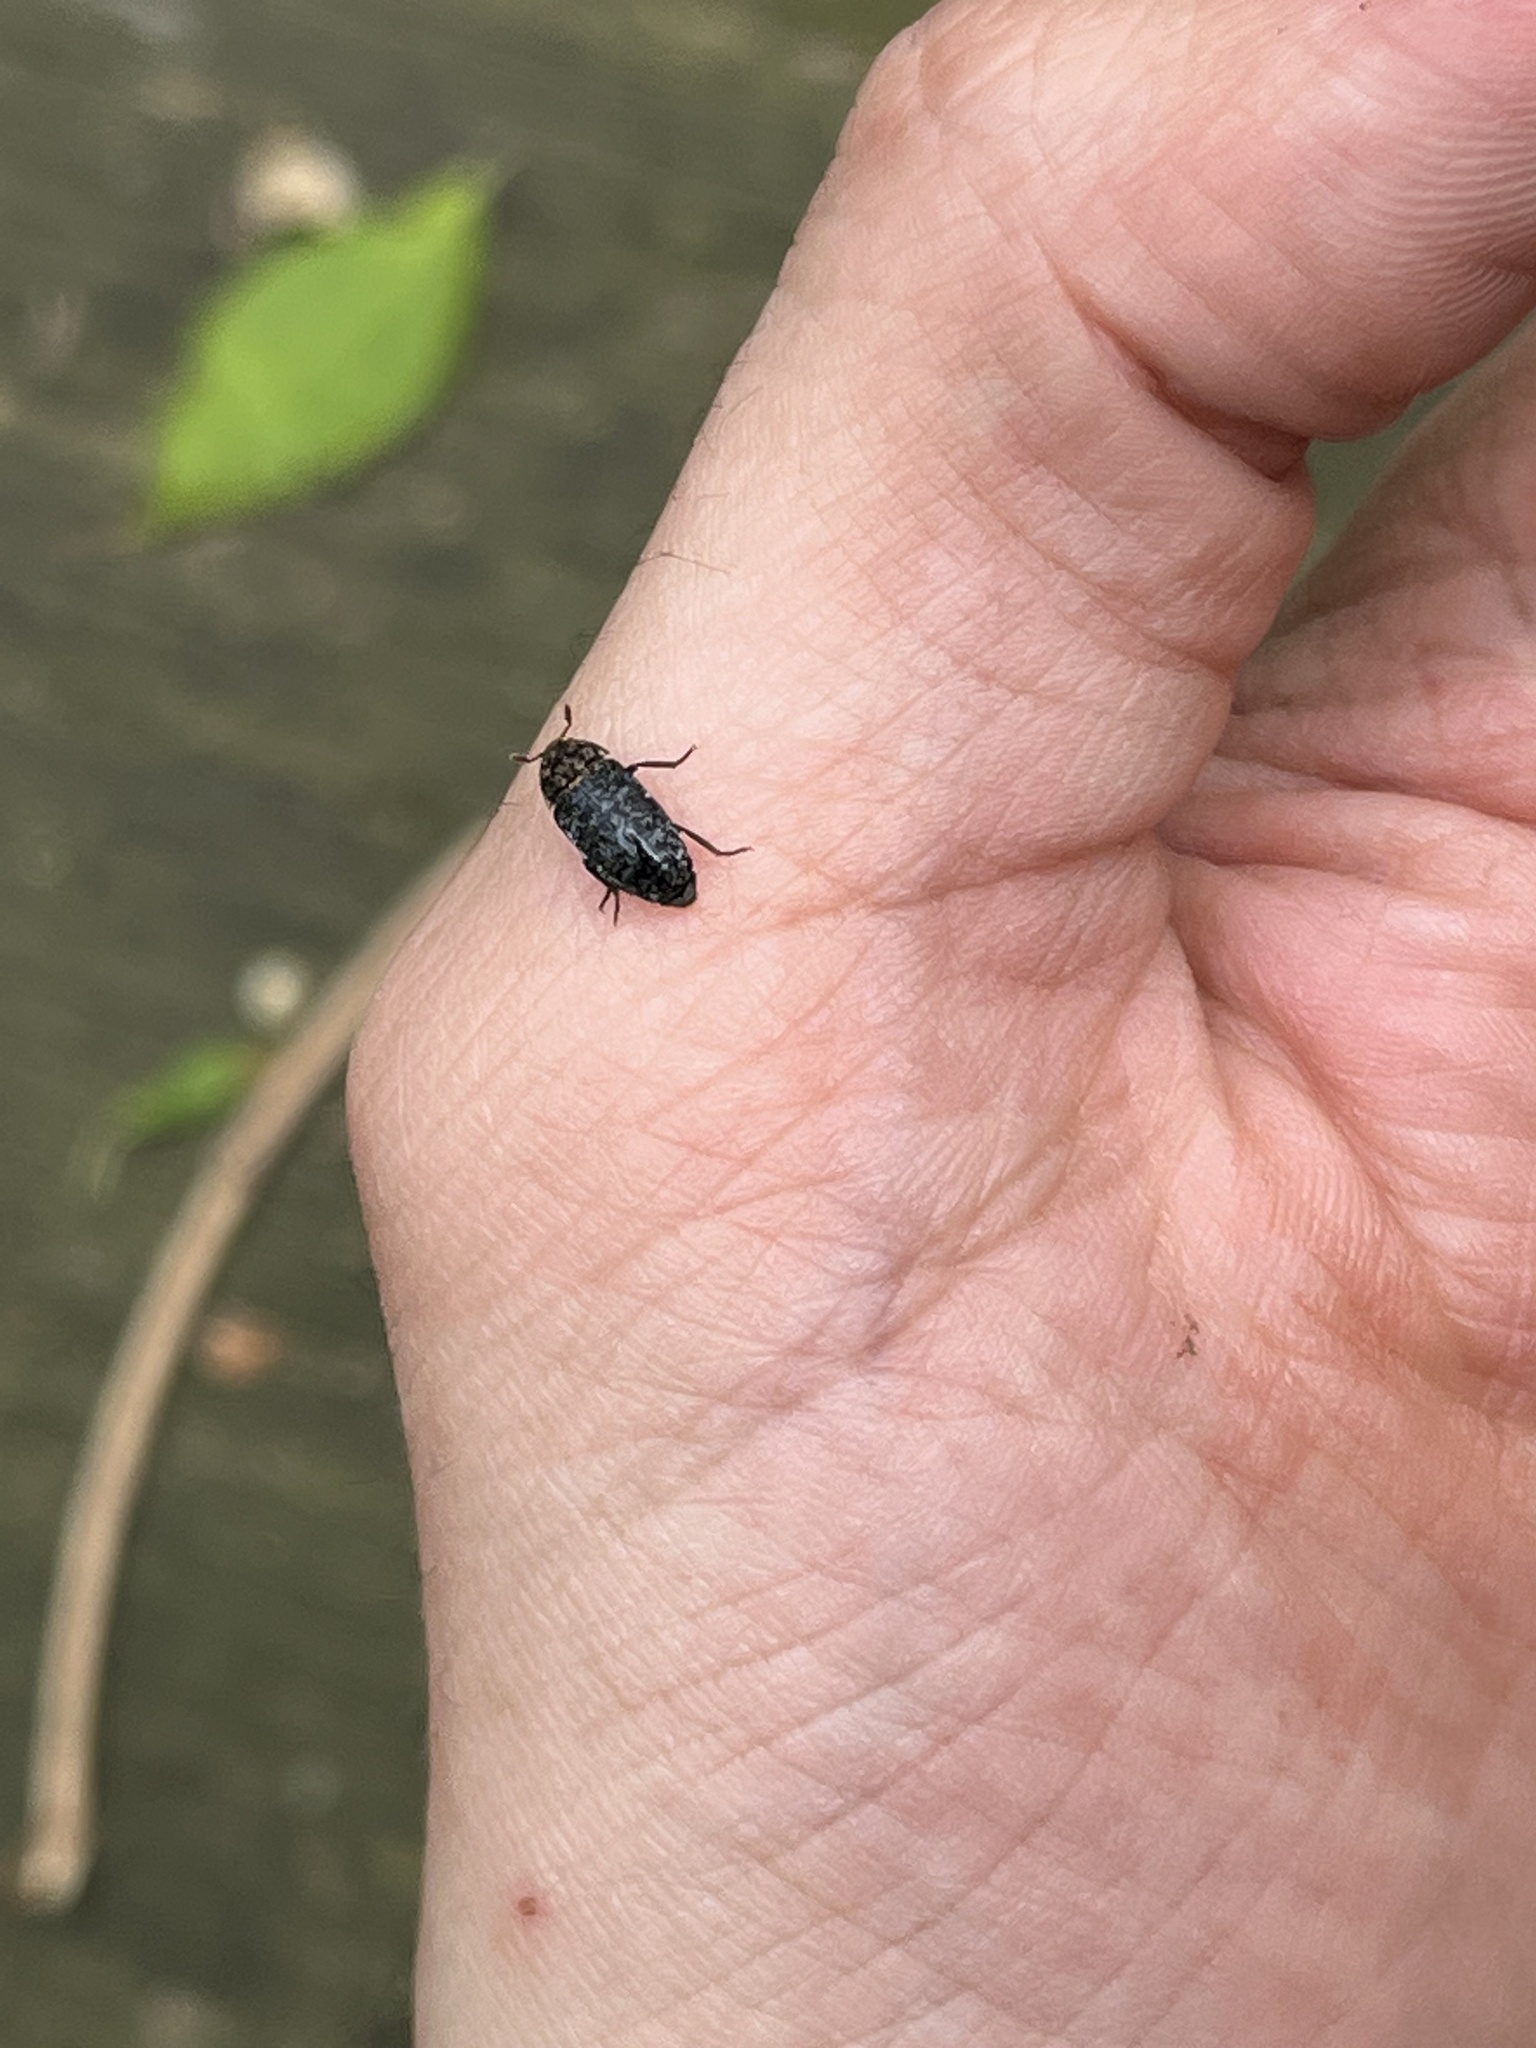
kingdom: Animalia
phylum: Arthropoda
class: Insecta
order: Coleoptera
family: Dermestidae
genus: Dermestes
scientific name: Dermestes undulatus
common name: Wavy carpet beetle
